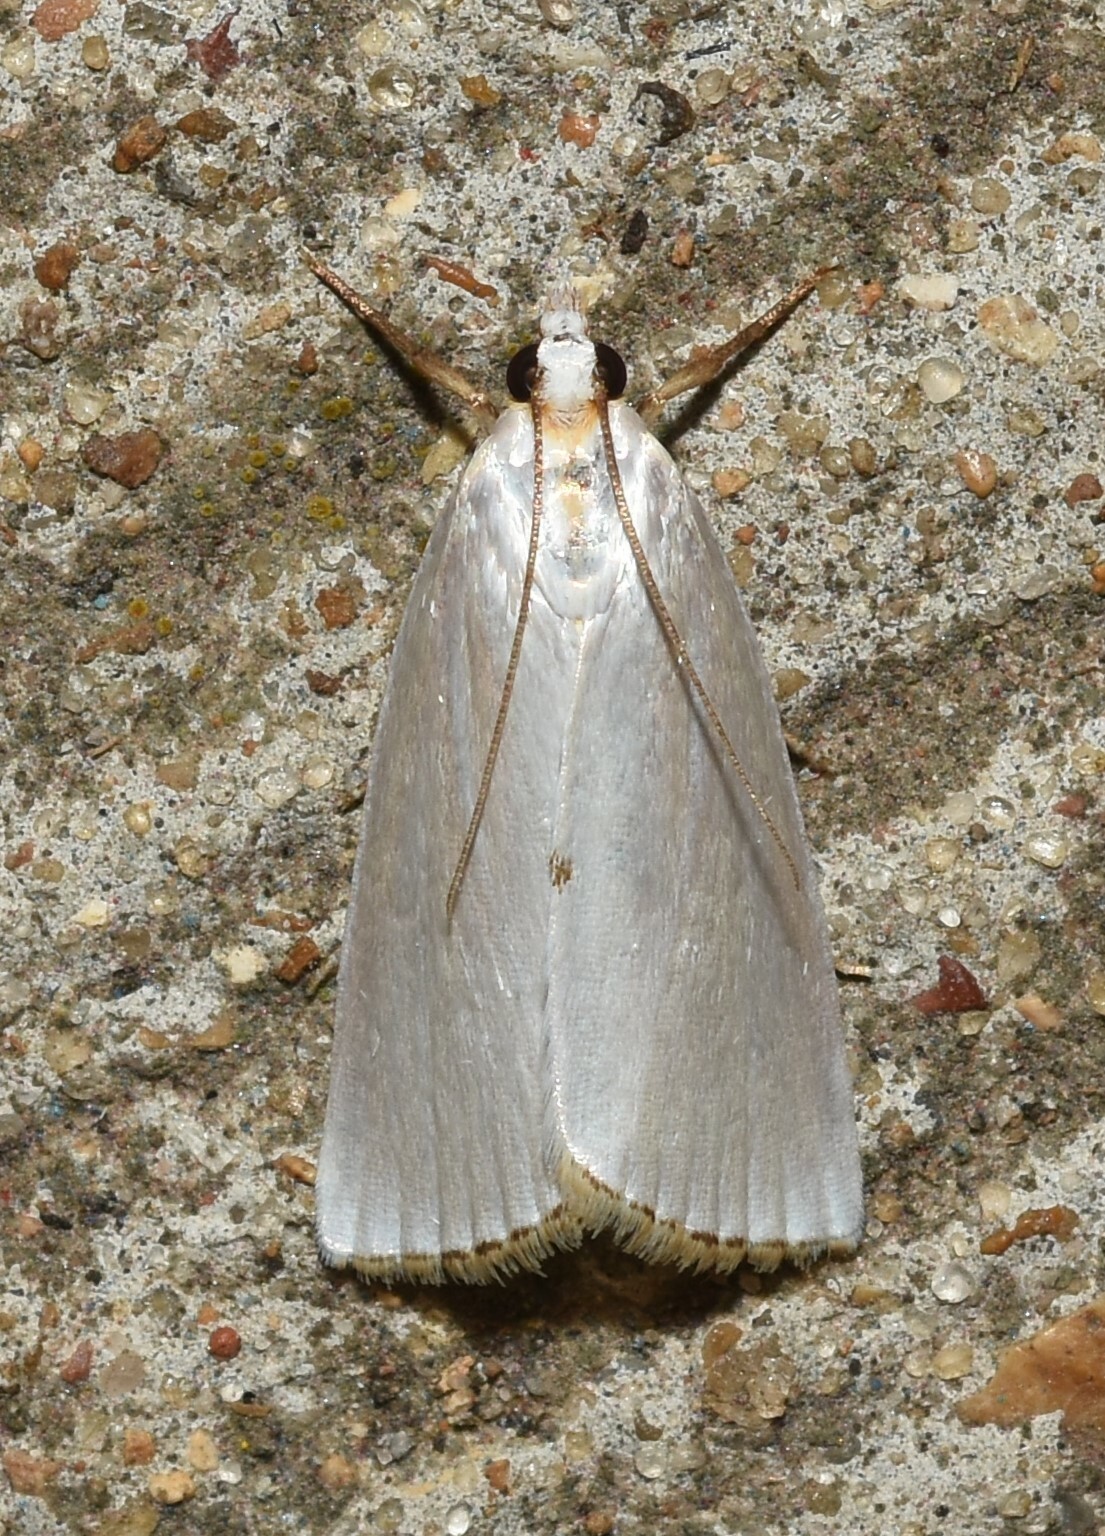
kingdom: Animalia
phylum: Arthropoda
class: Insecta
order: Lepidoptera
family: Crambidae
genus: Argyria
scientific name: Argyria nivalis
